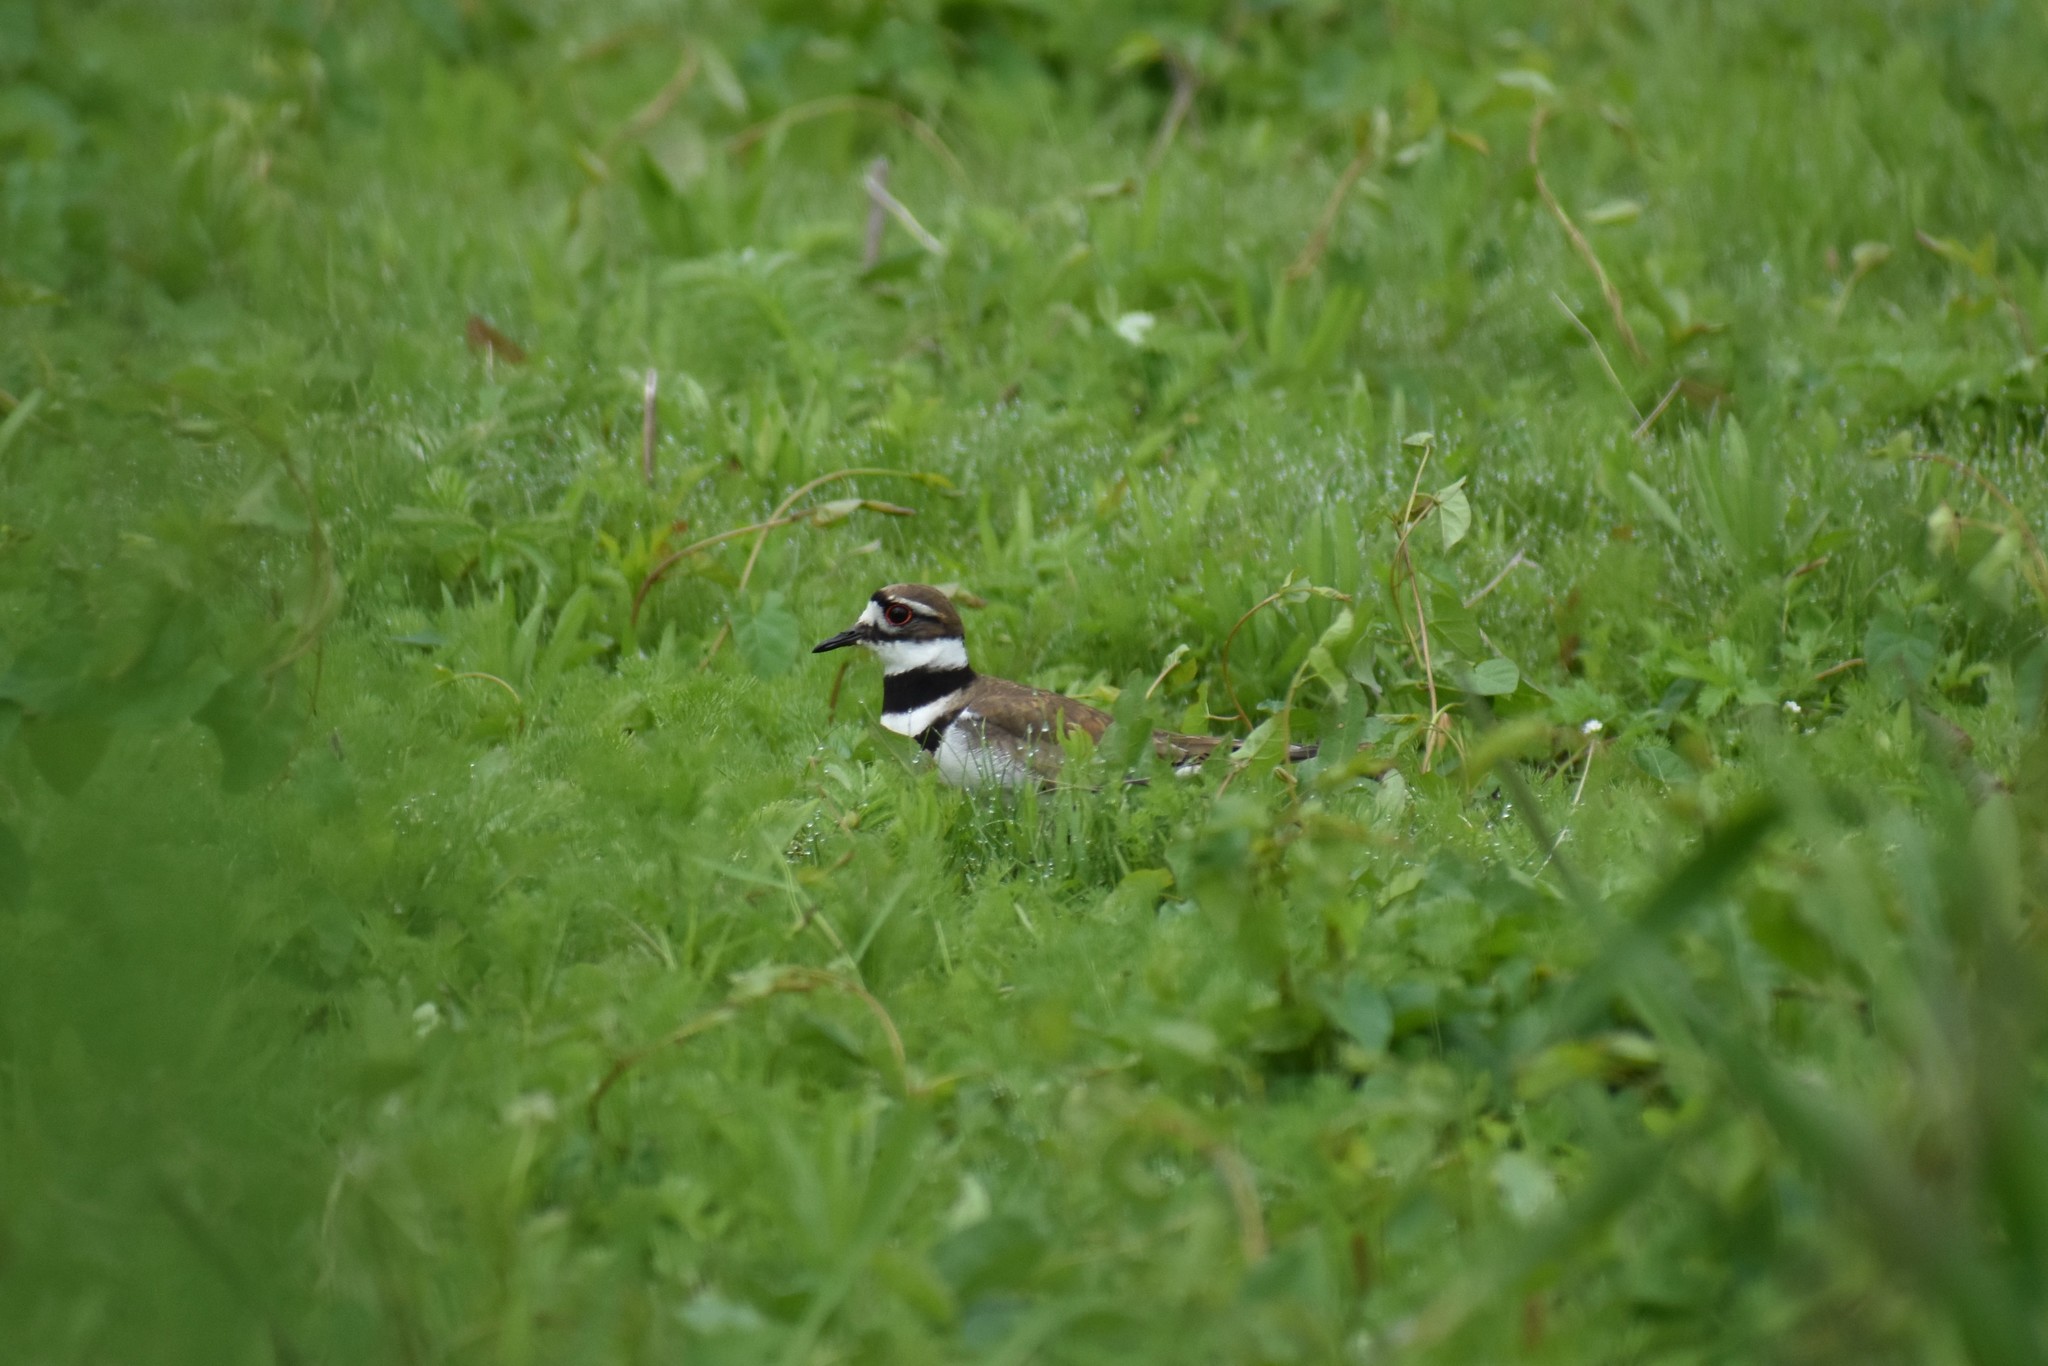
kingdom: Animalia
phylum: Chordata
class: Aves
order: Charadriiformes
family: Charadriidae
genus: Charadrius
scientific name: Charadrius vociferus
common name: Killdeer
